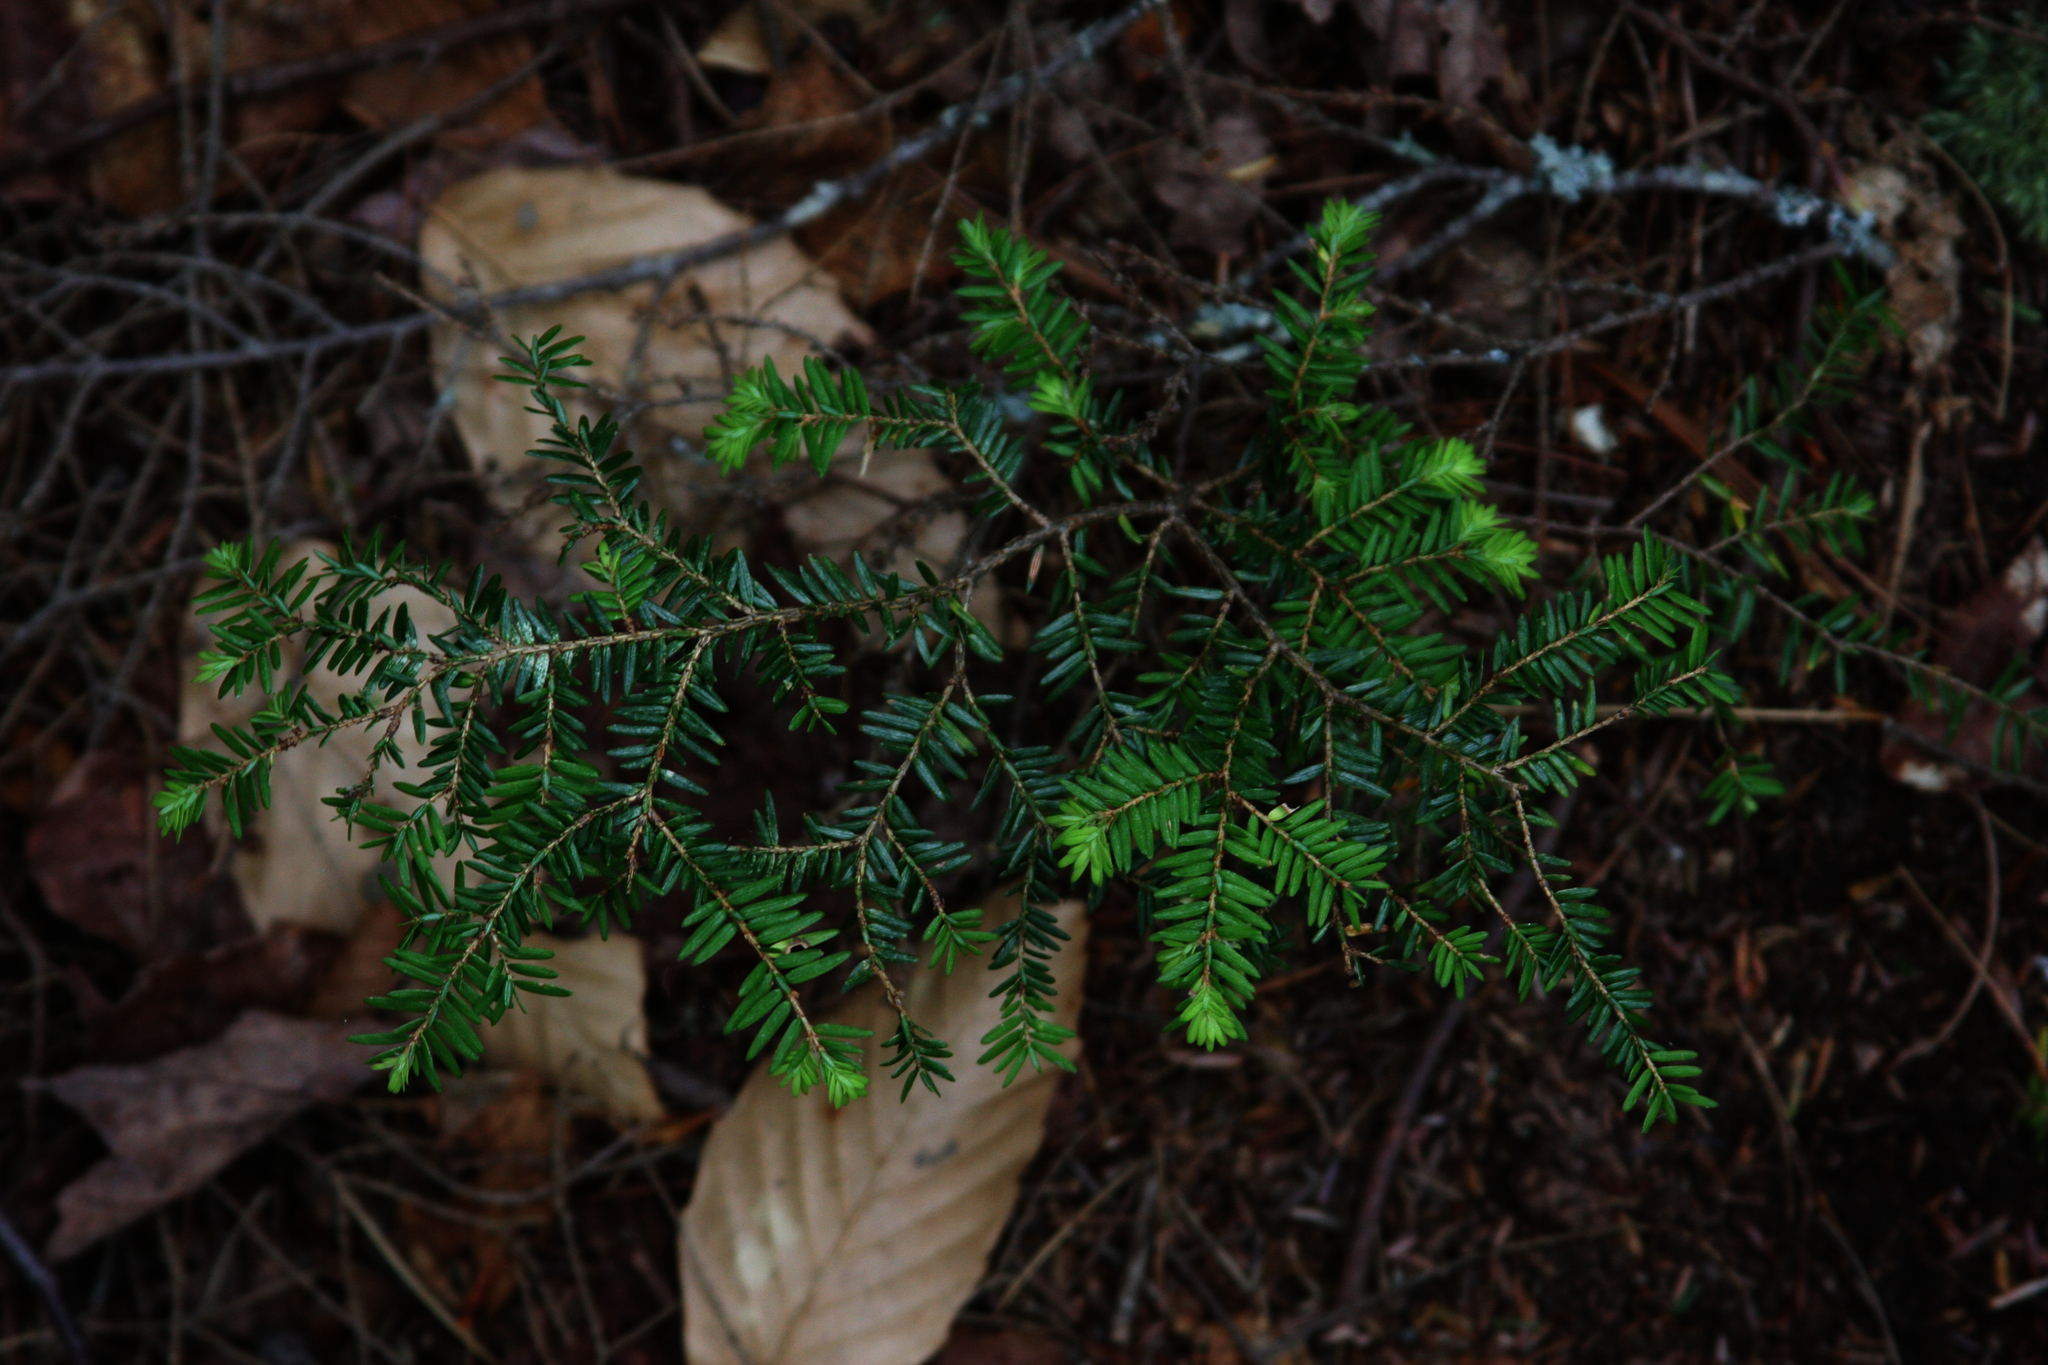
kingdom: Plantae
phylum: Tracheophyta
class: Pinopsida
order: Pinales
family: Pinaceae
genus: Tsuga
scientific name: Tsuga canadensis
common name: Eastern hemlock
